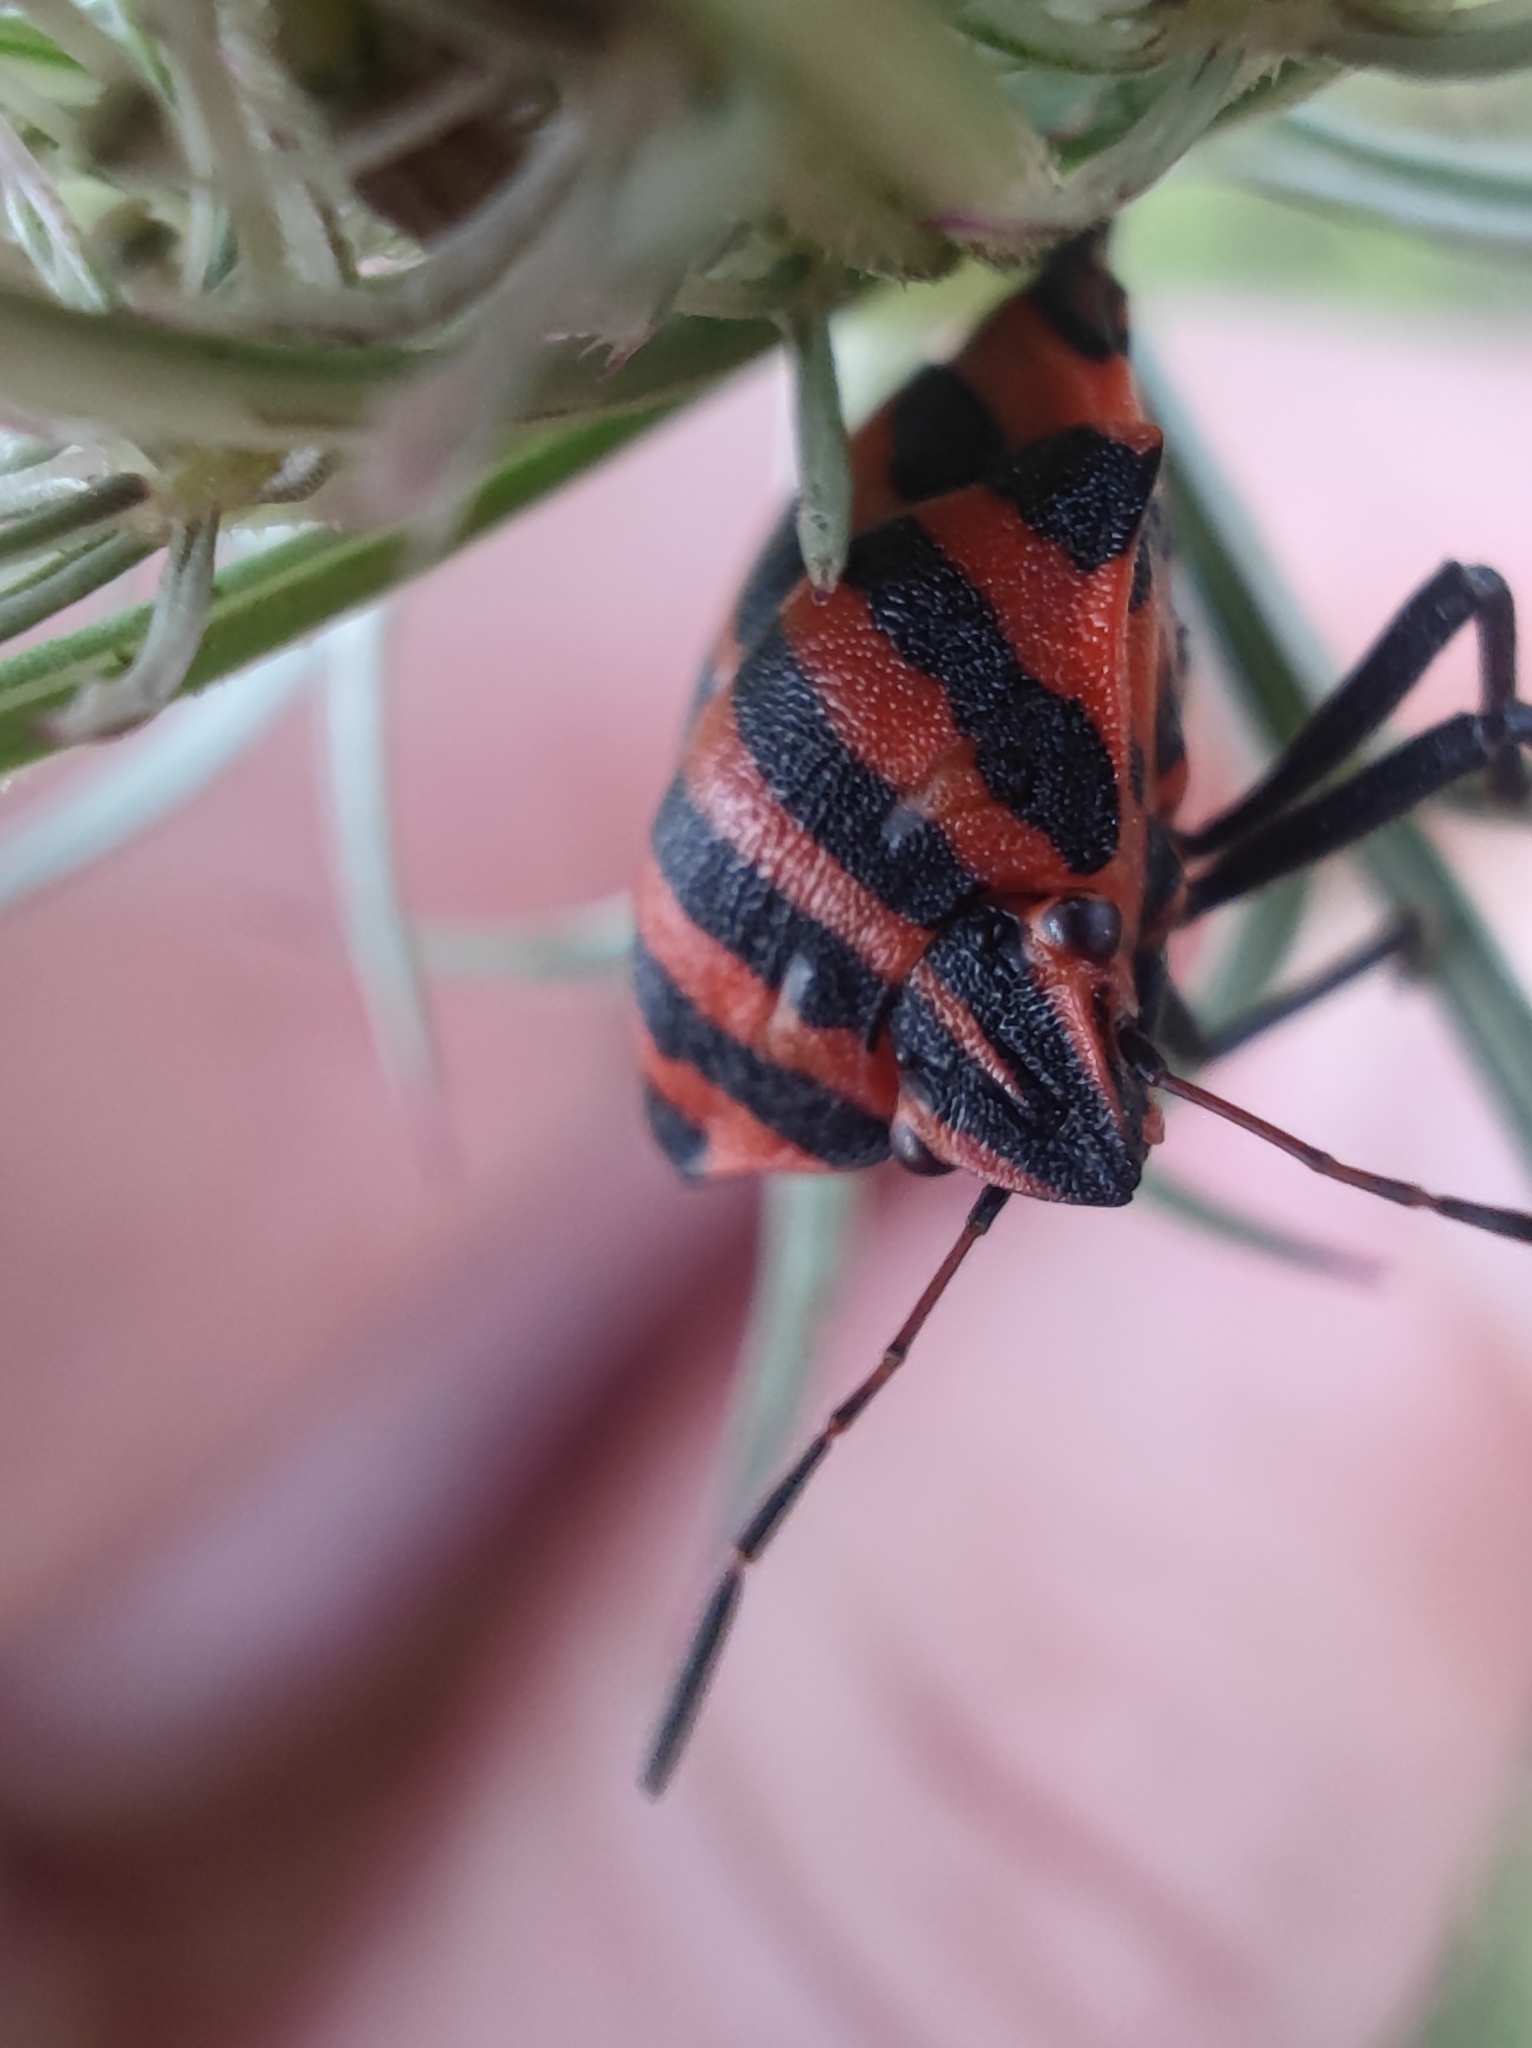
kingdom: Animalia
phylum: Arthropoda
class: Insecta
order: Hemiptera
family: Pentatomidae
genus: Graphosoma
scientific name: Graphosoma italicum
